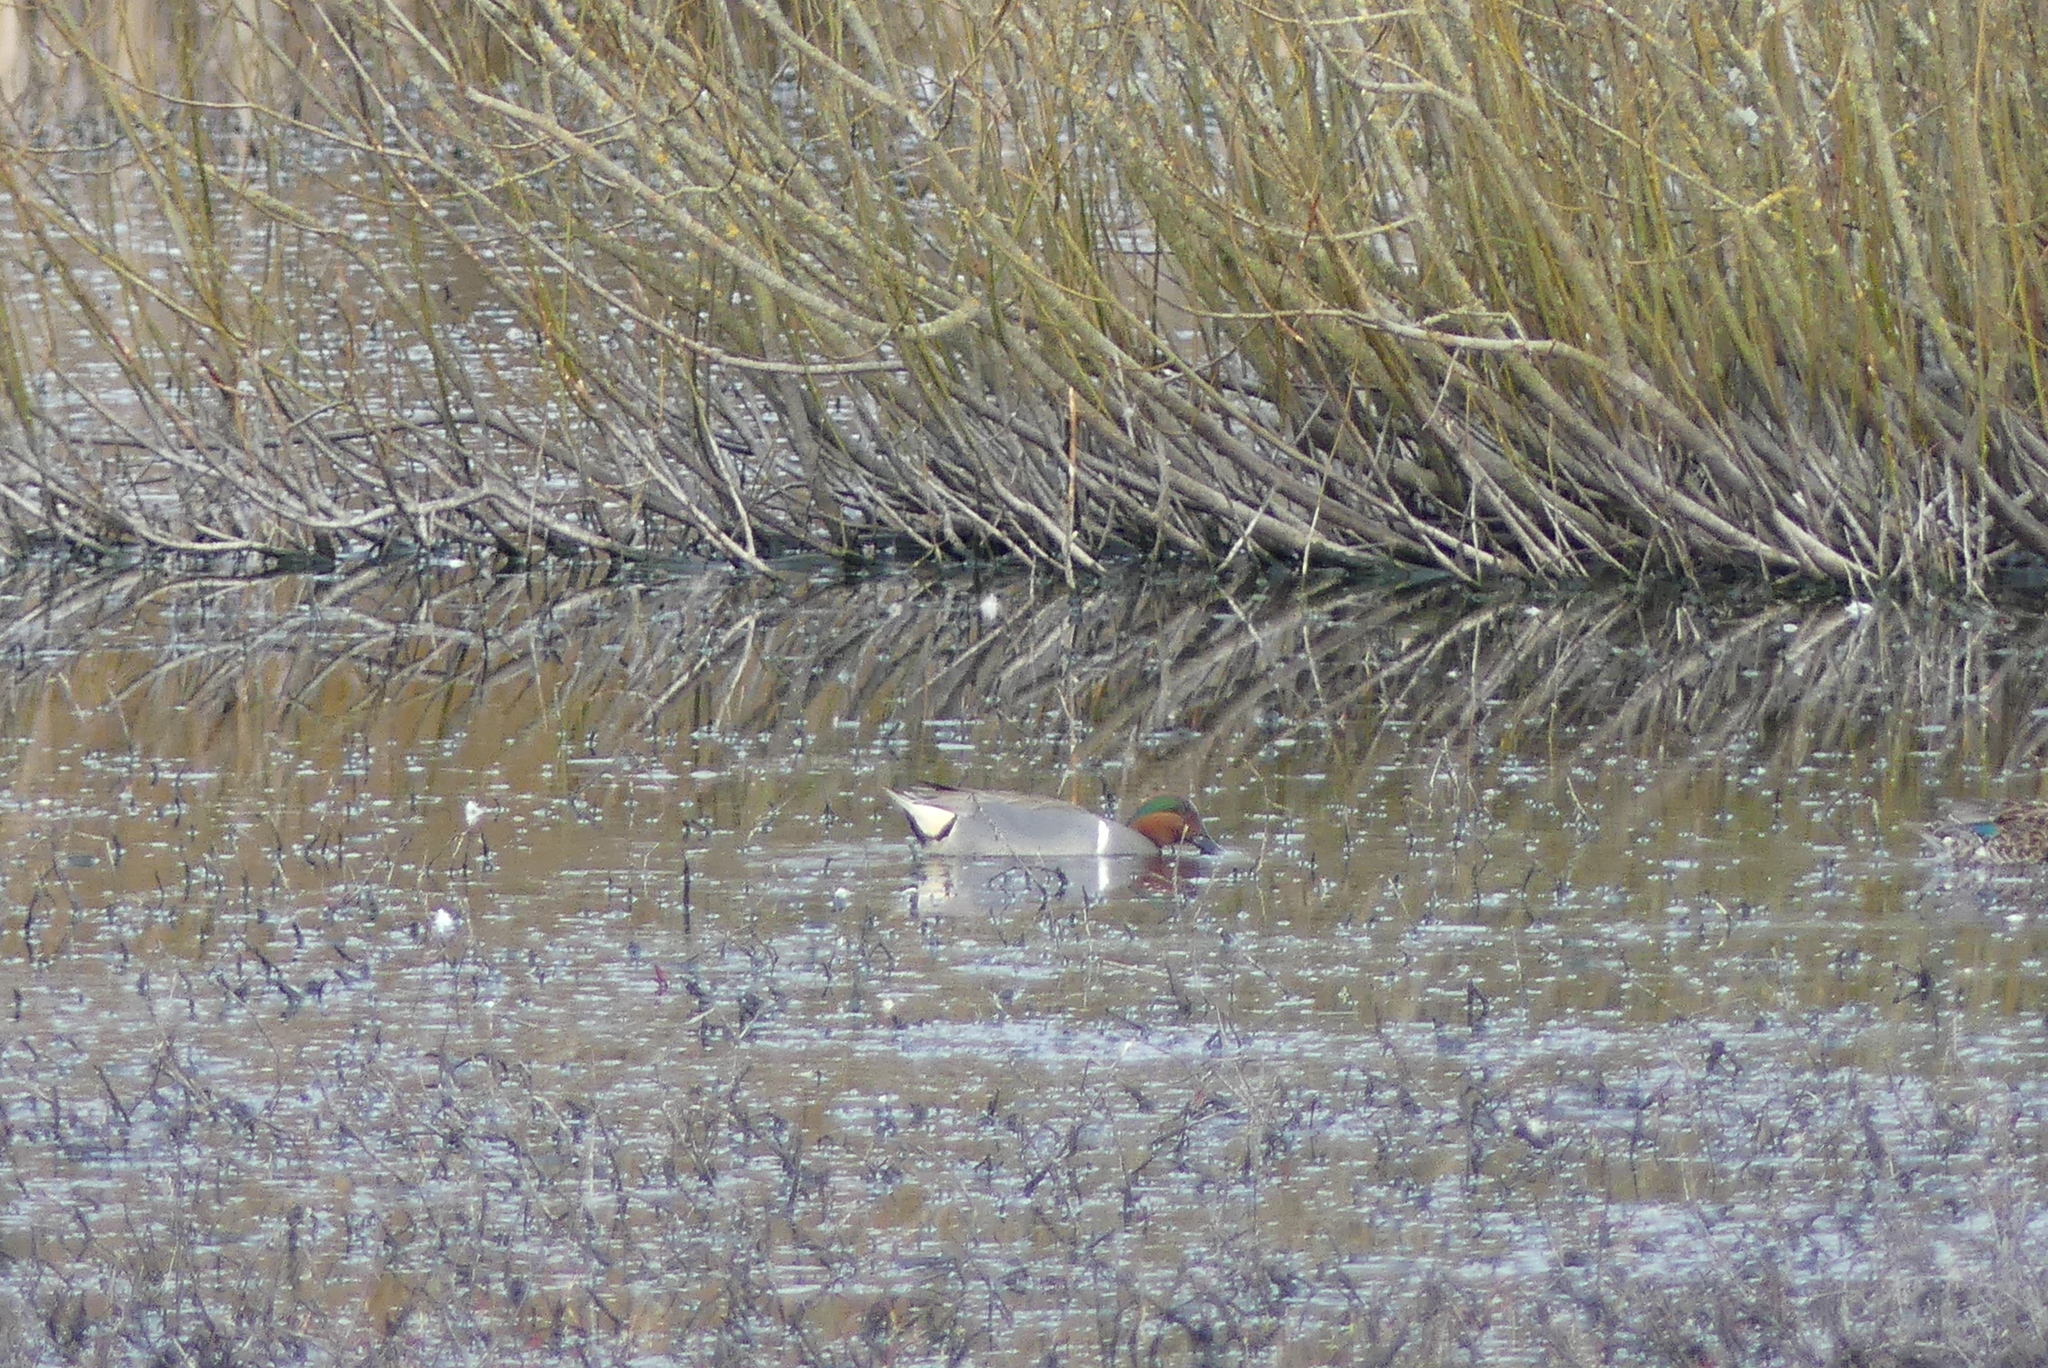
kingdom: Animalia
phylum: Chordata
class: Aves
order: Anseriformes
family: Anatidae
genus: Anas
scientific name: Anas crecca
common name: Eurasian teal
